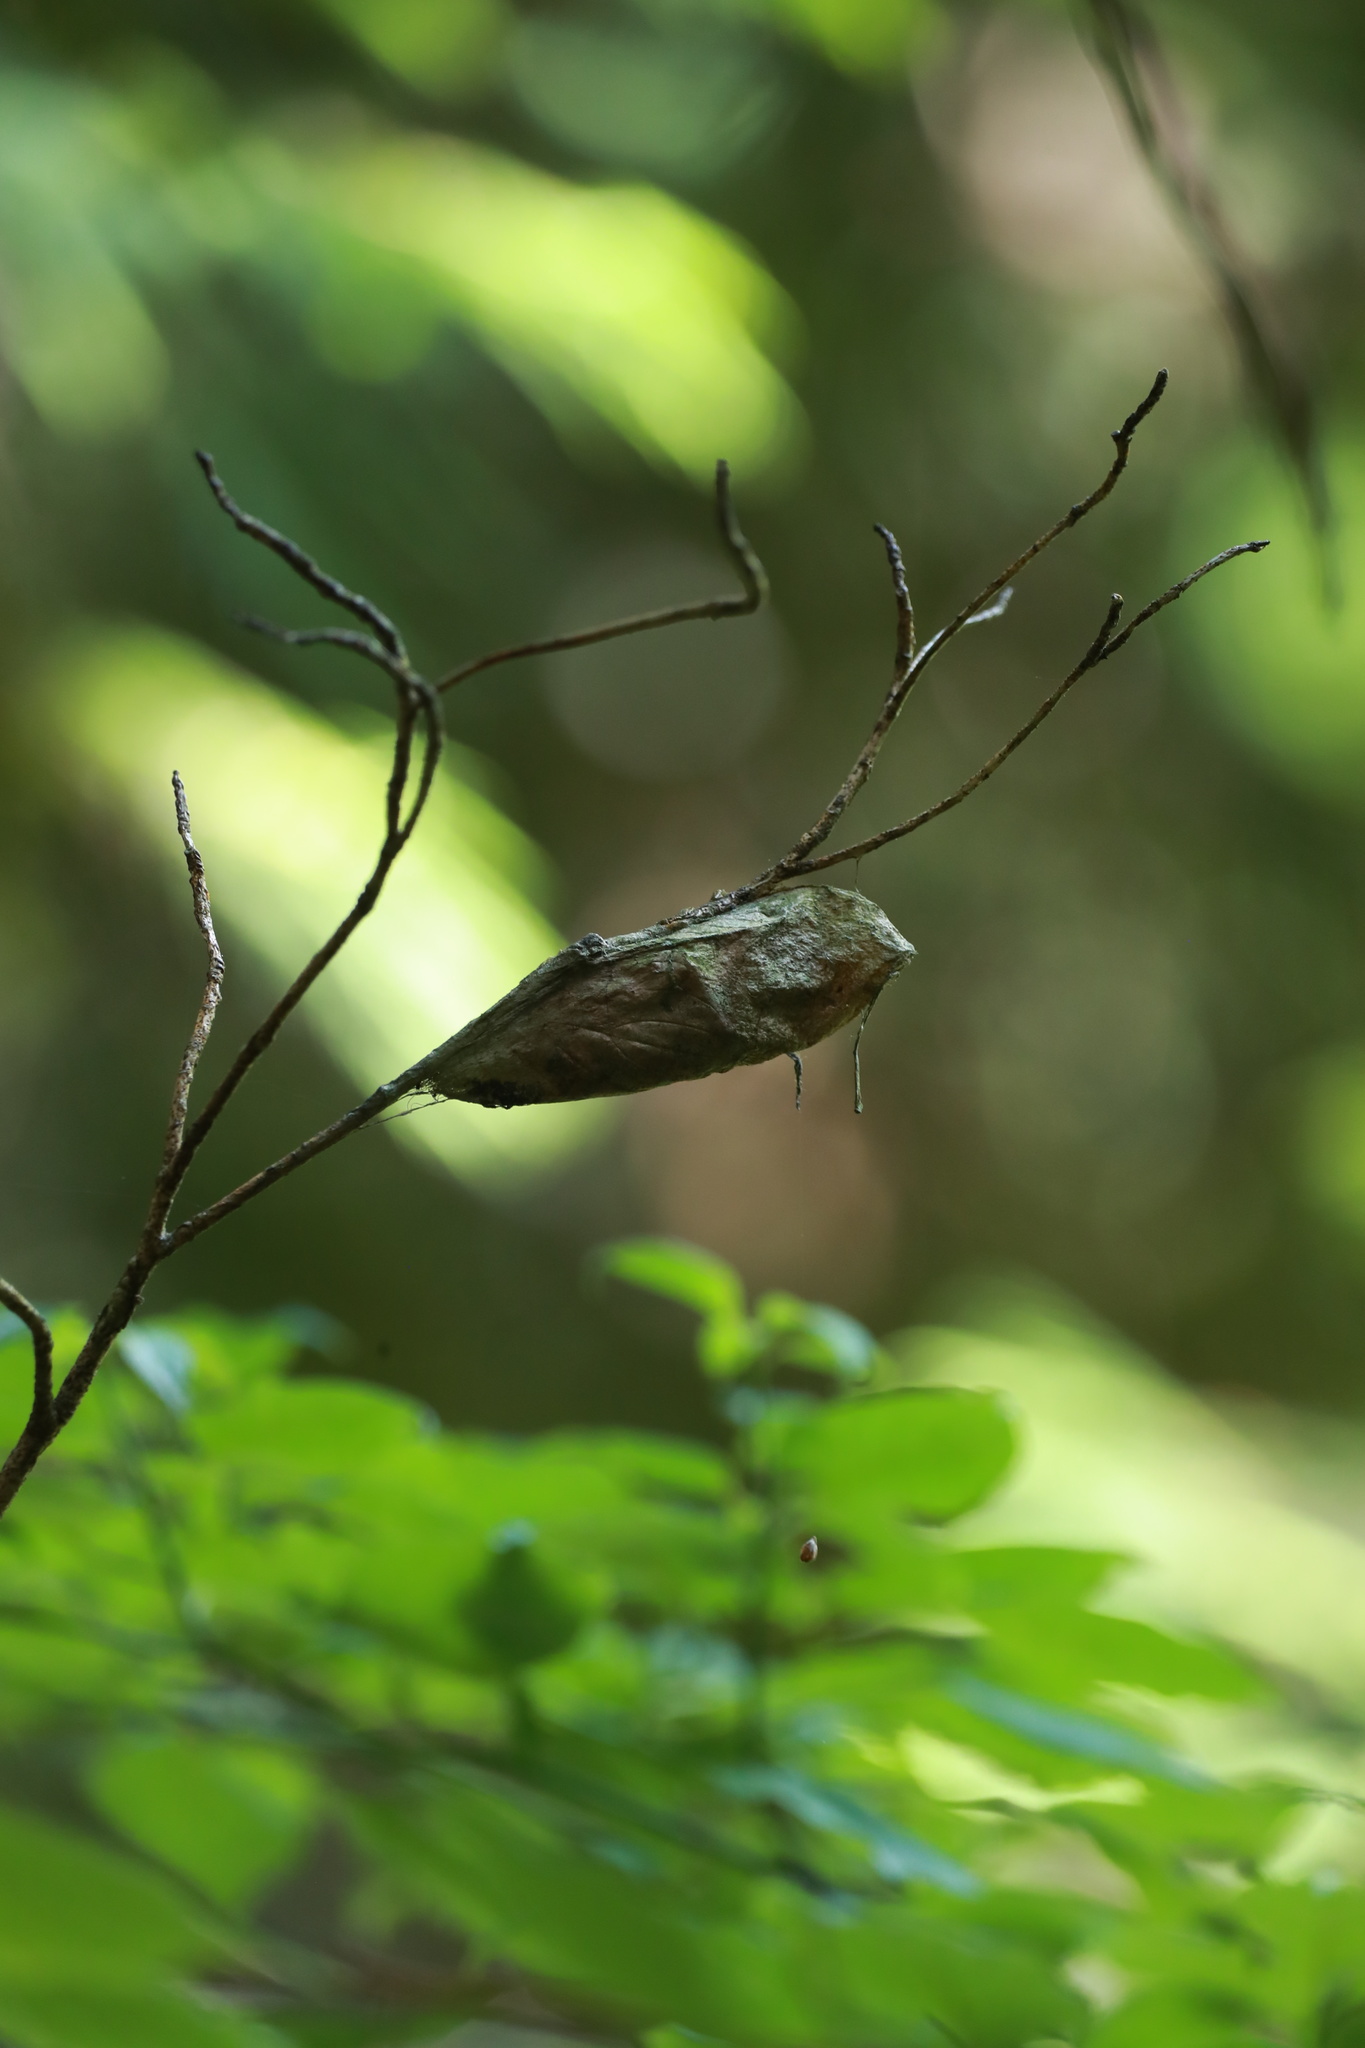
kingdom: Animalia
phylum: Arthropoda
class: Insecta
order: Lepidoptera
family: Saturniidae
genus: Hyalophora
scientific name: Hyalophora cecropia
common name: Cecropia silkmoth
